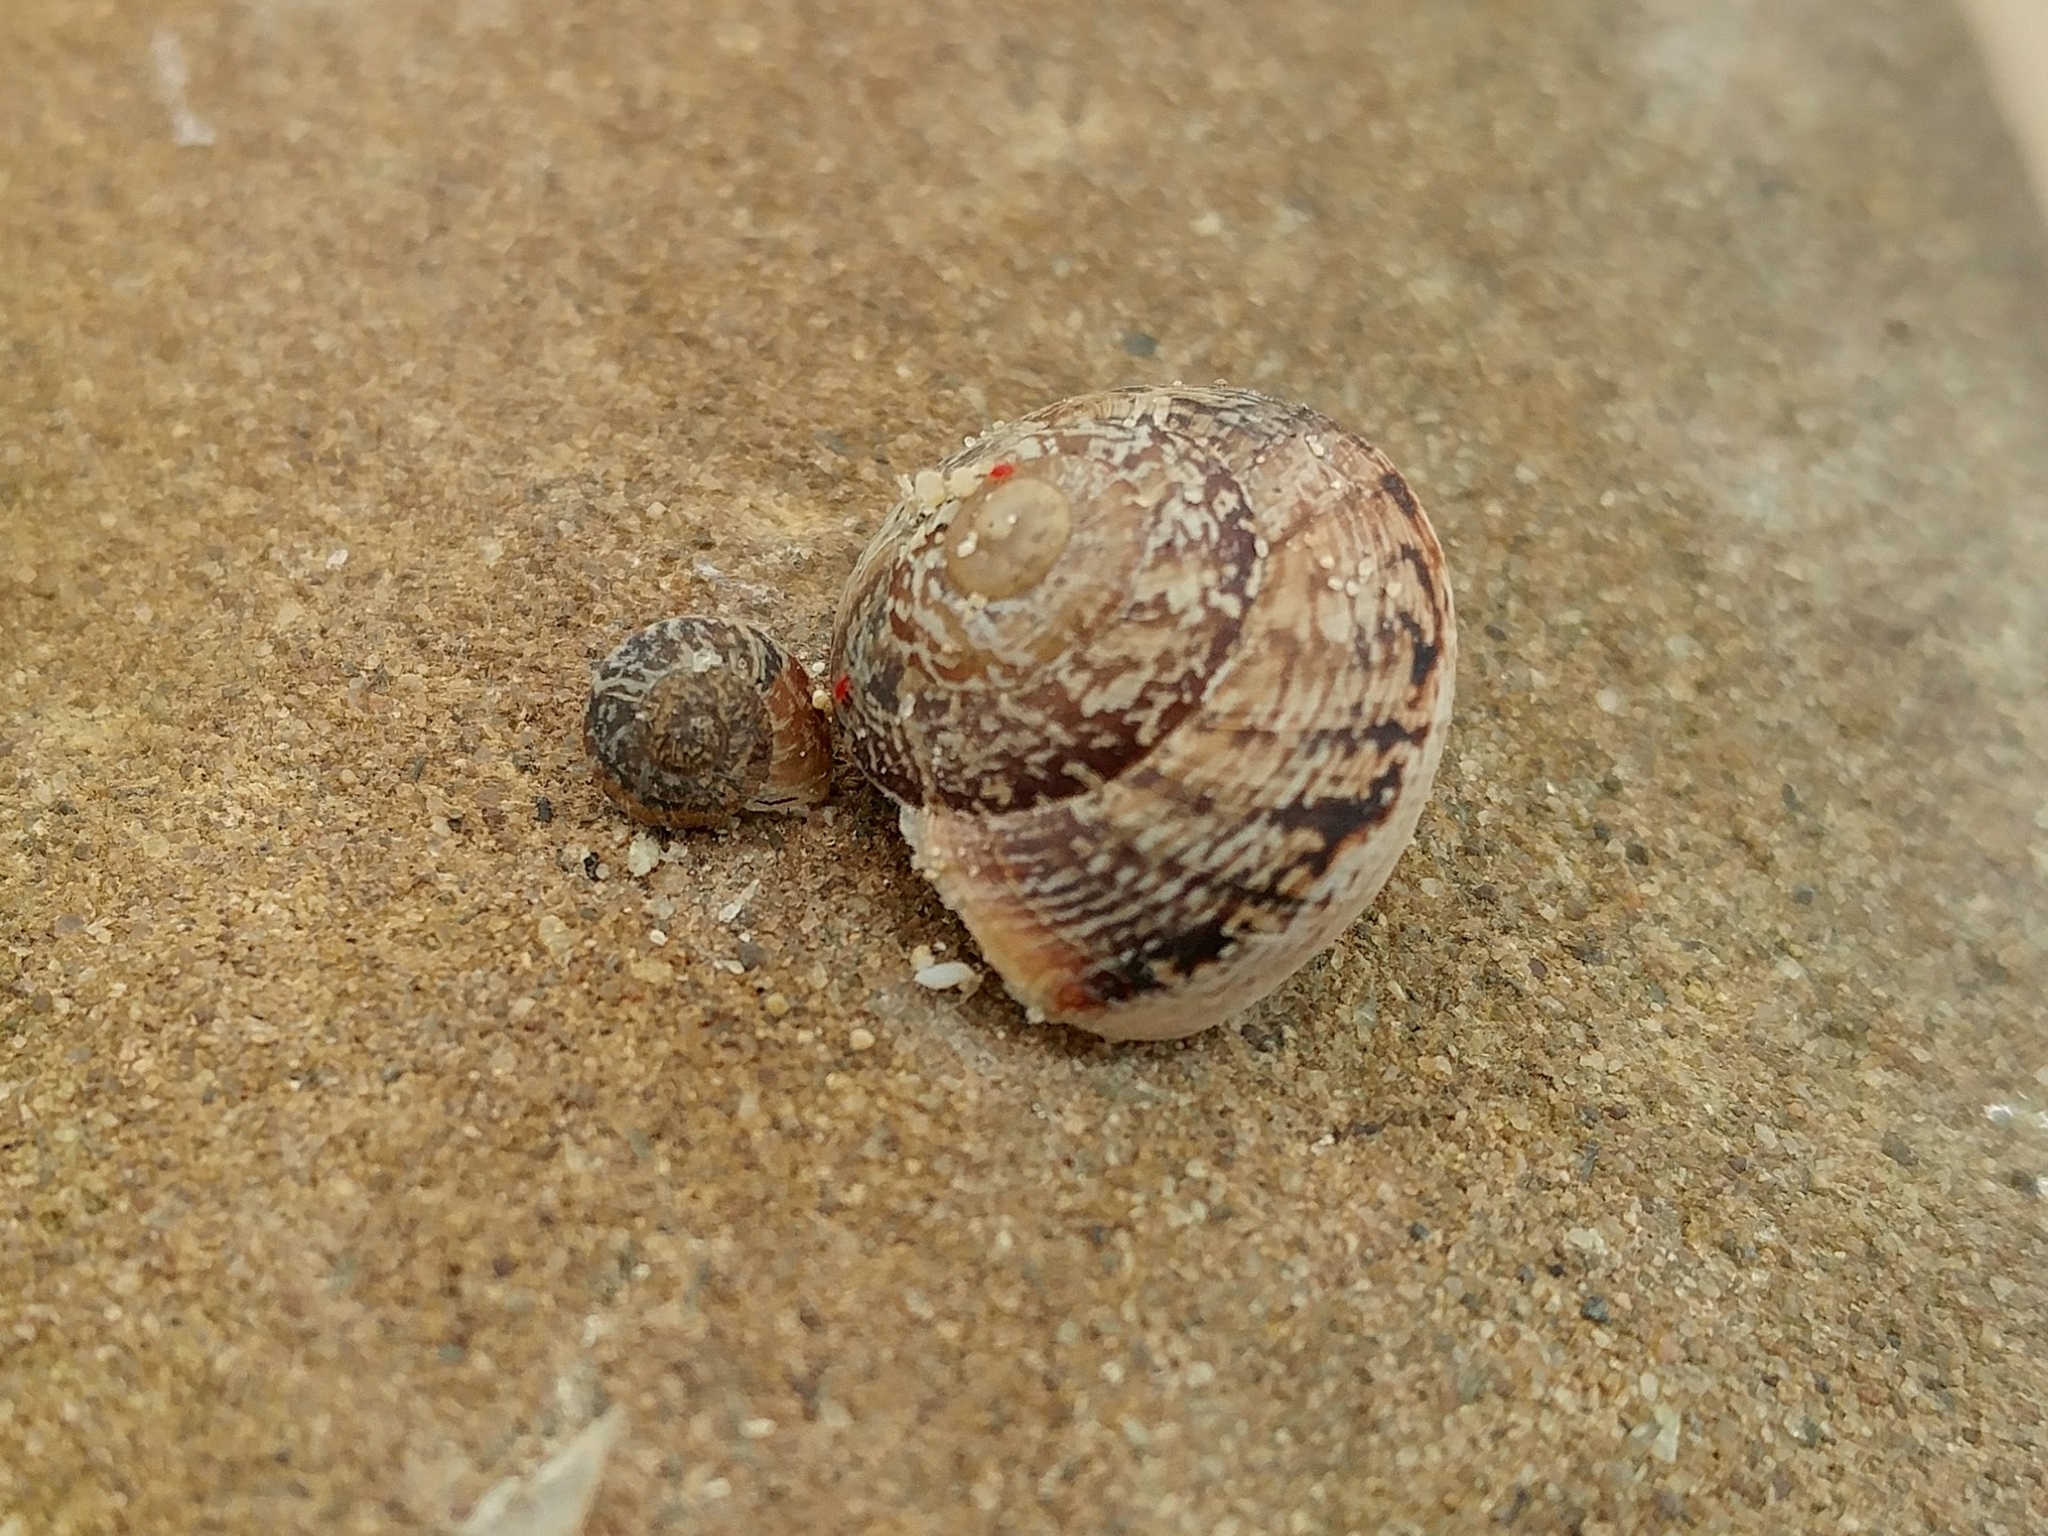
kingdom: Animalia
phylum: Mollusca
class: Gastropoda
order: Stylommatophora
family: Xanthonychidae
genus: Xerarionta
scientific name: Xerarionta tryoni
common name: Bicolor cactus snail
